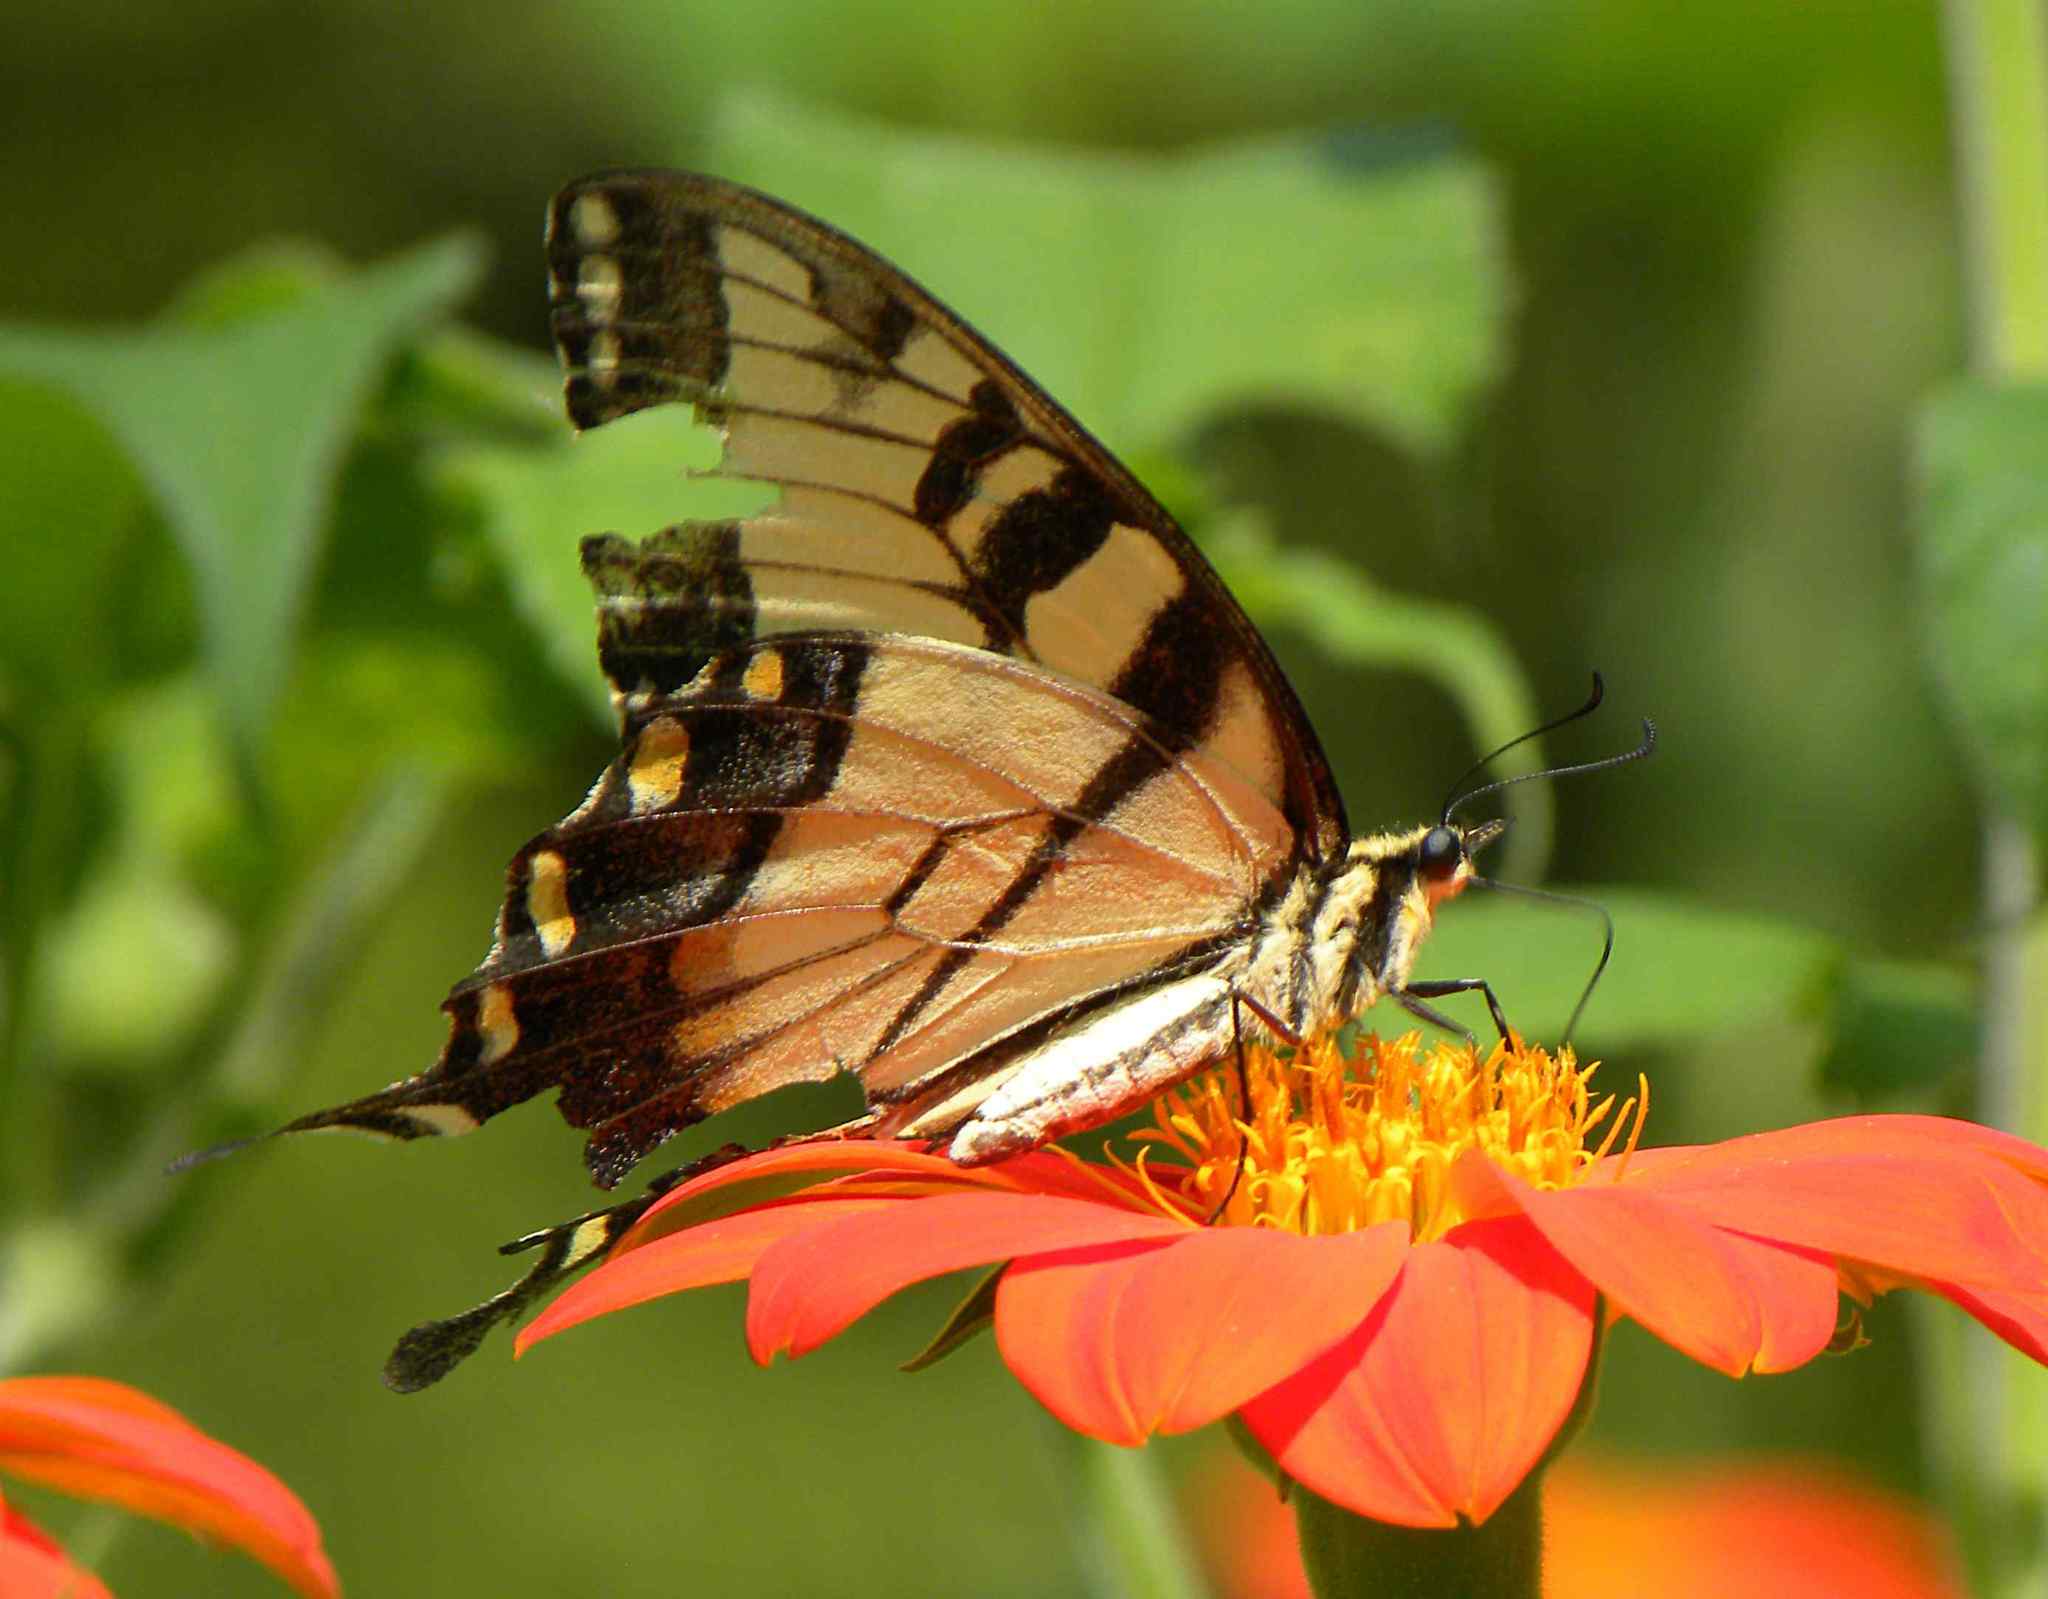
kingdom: Animalia
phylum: Arthropoda
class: Insecta
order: Lepidoptera
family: Papilionidae
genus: Papilio
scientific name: Papilio glaucus
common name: Tiger swallowtail
